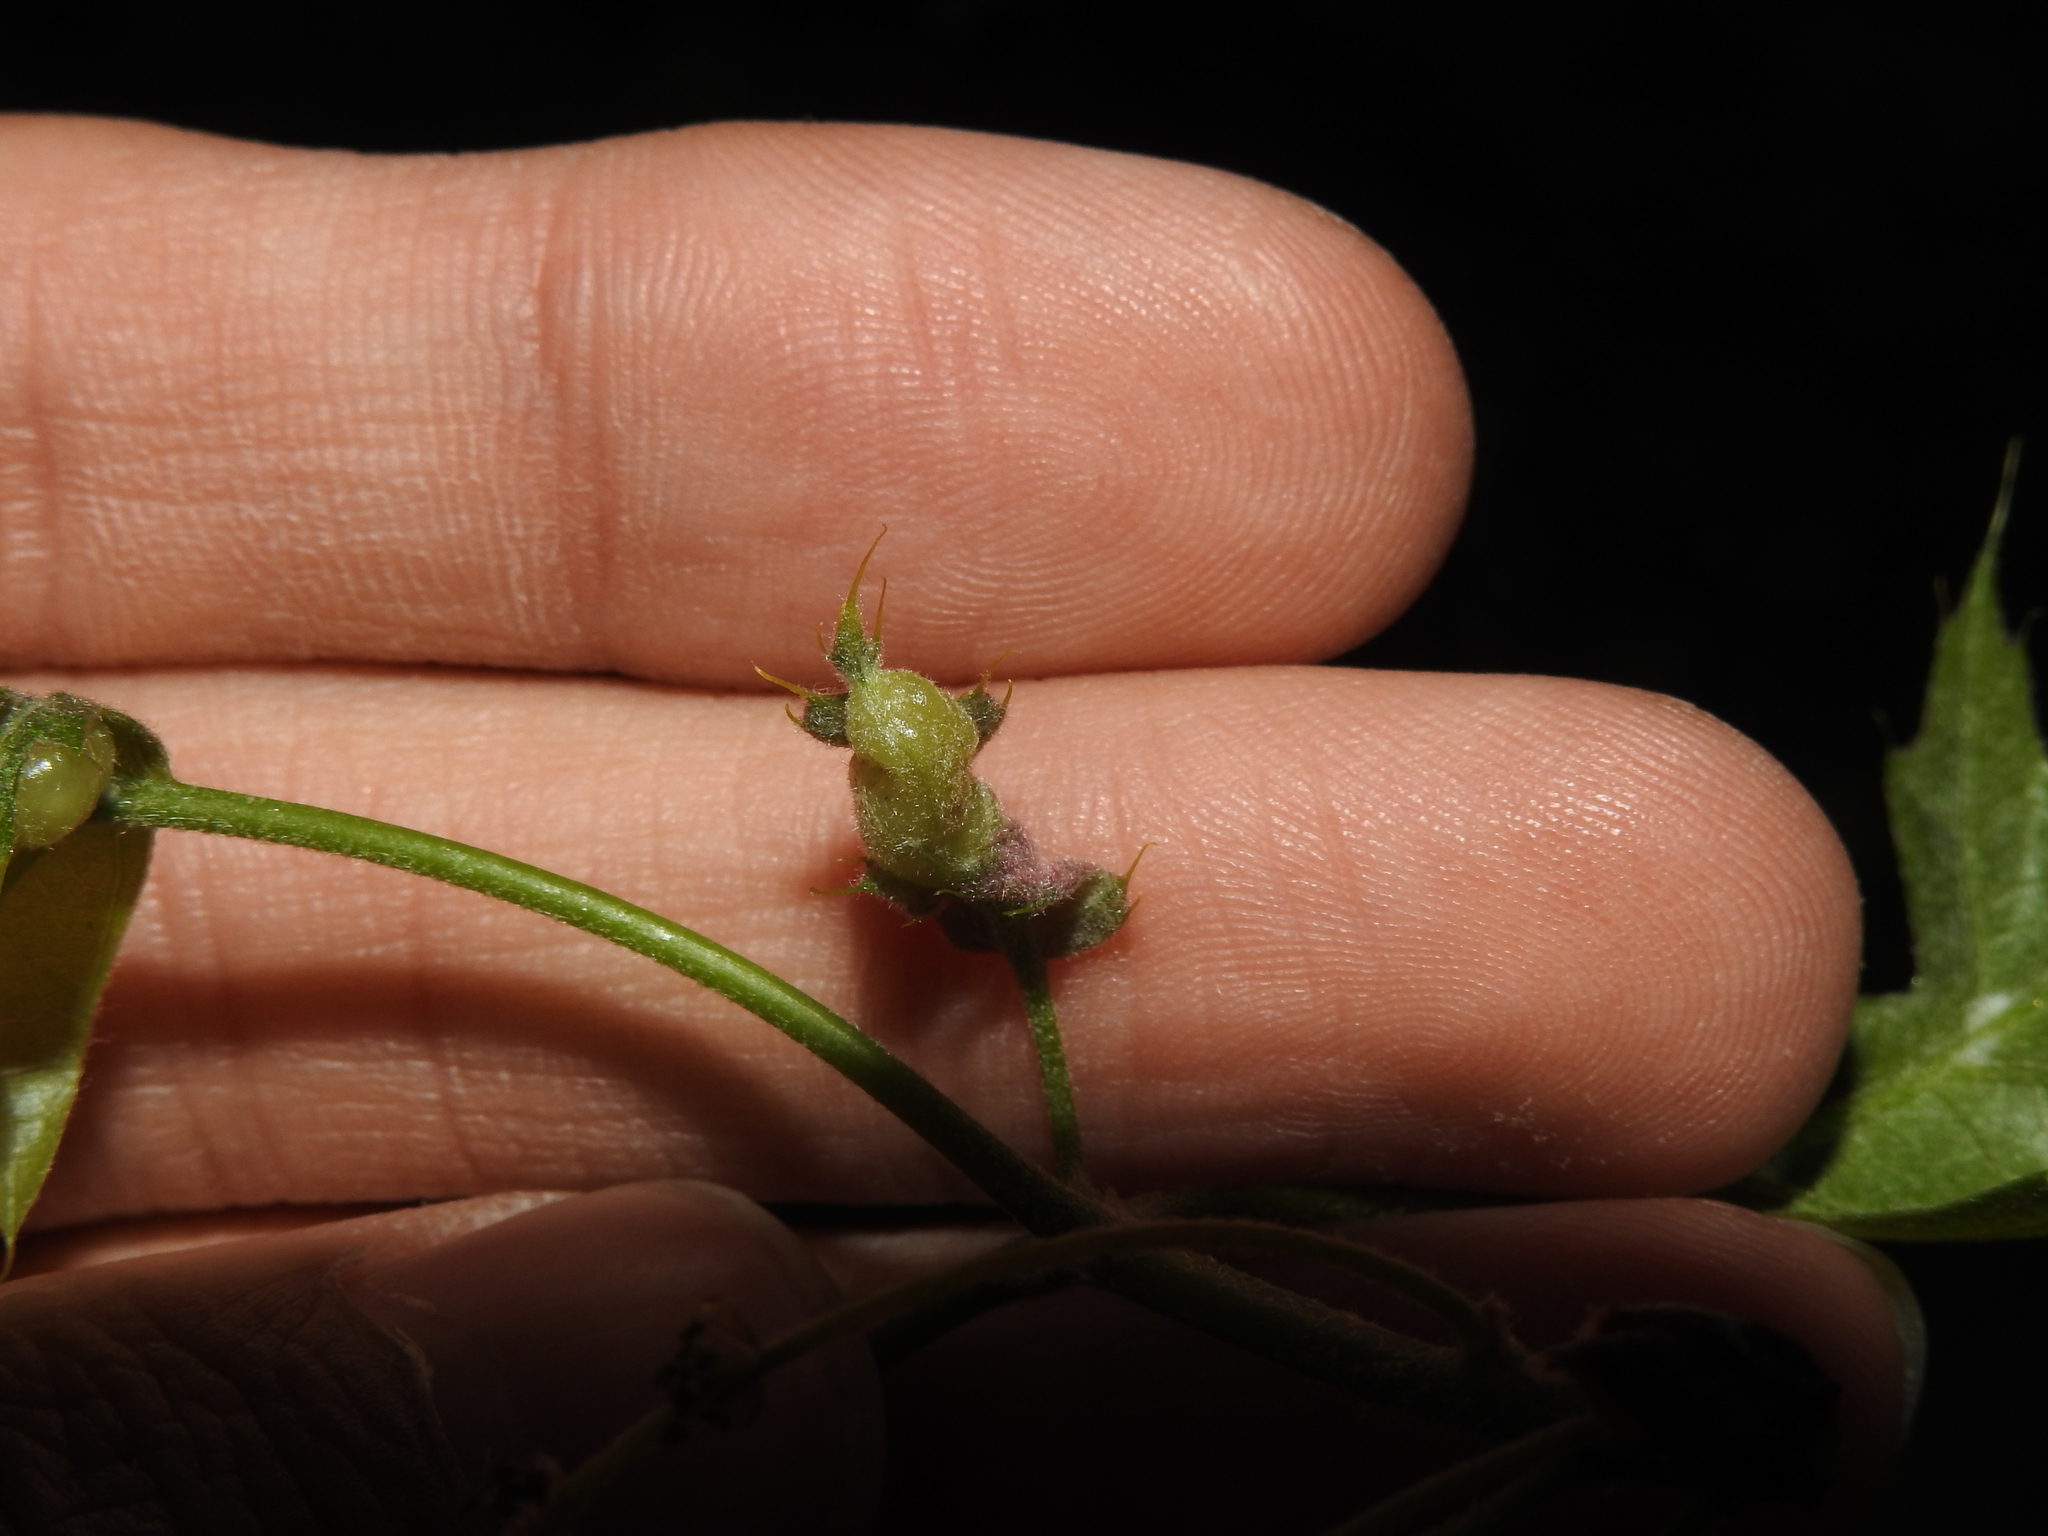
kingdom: Animalia
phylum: Arthropoda
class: Insecta
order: Diptera
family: Cecidomyiidae
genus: Macrodiplosis
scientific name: Macrodiplosis majalis
